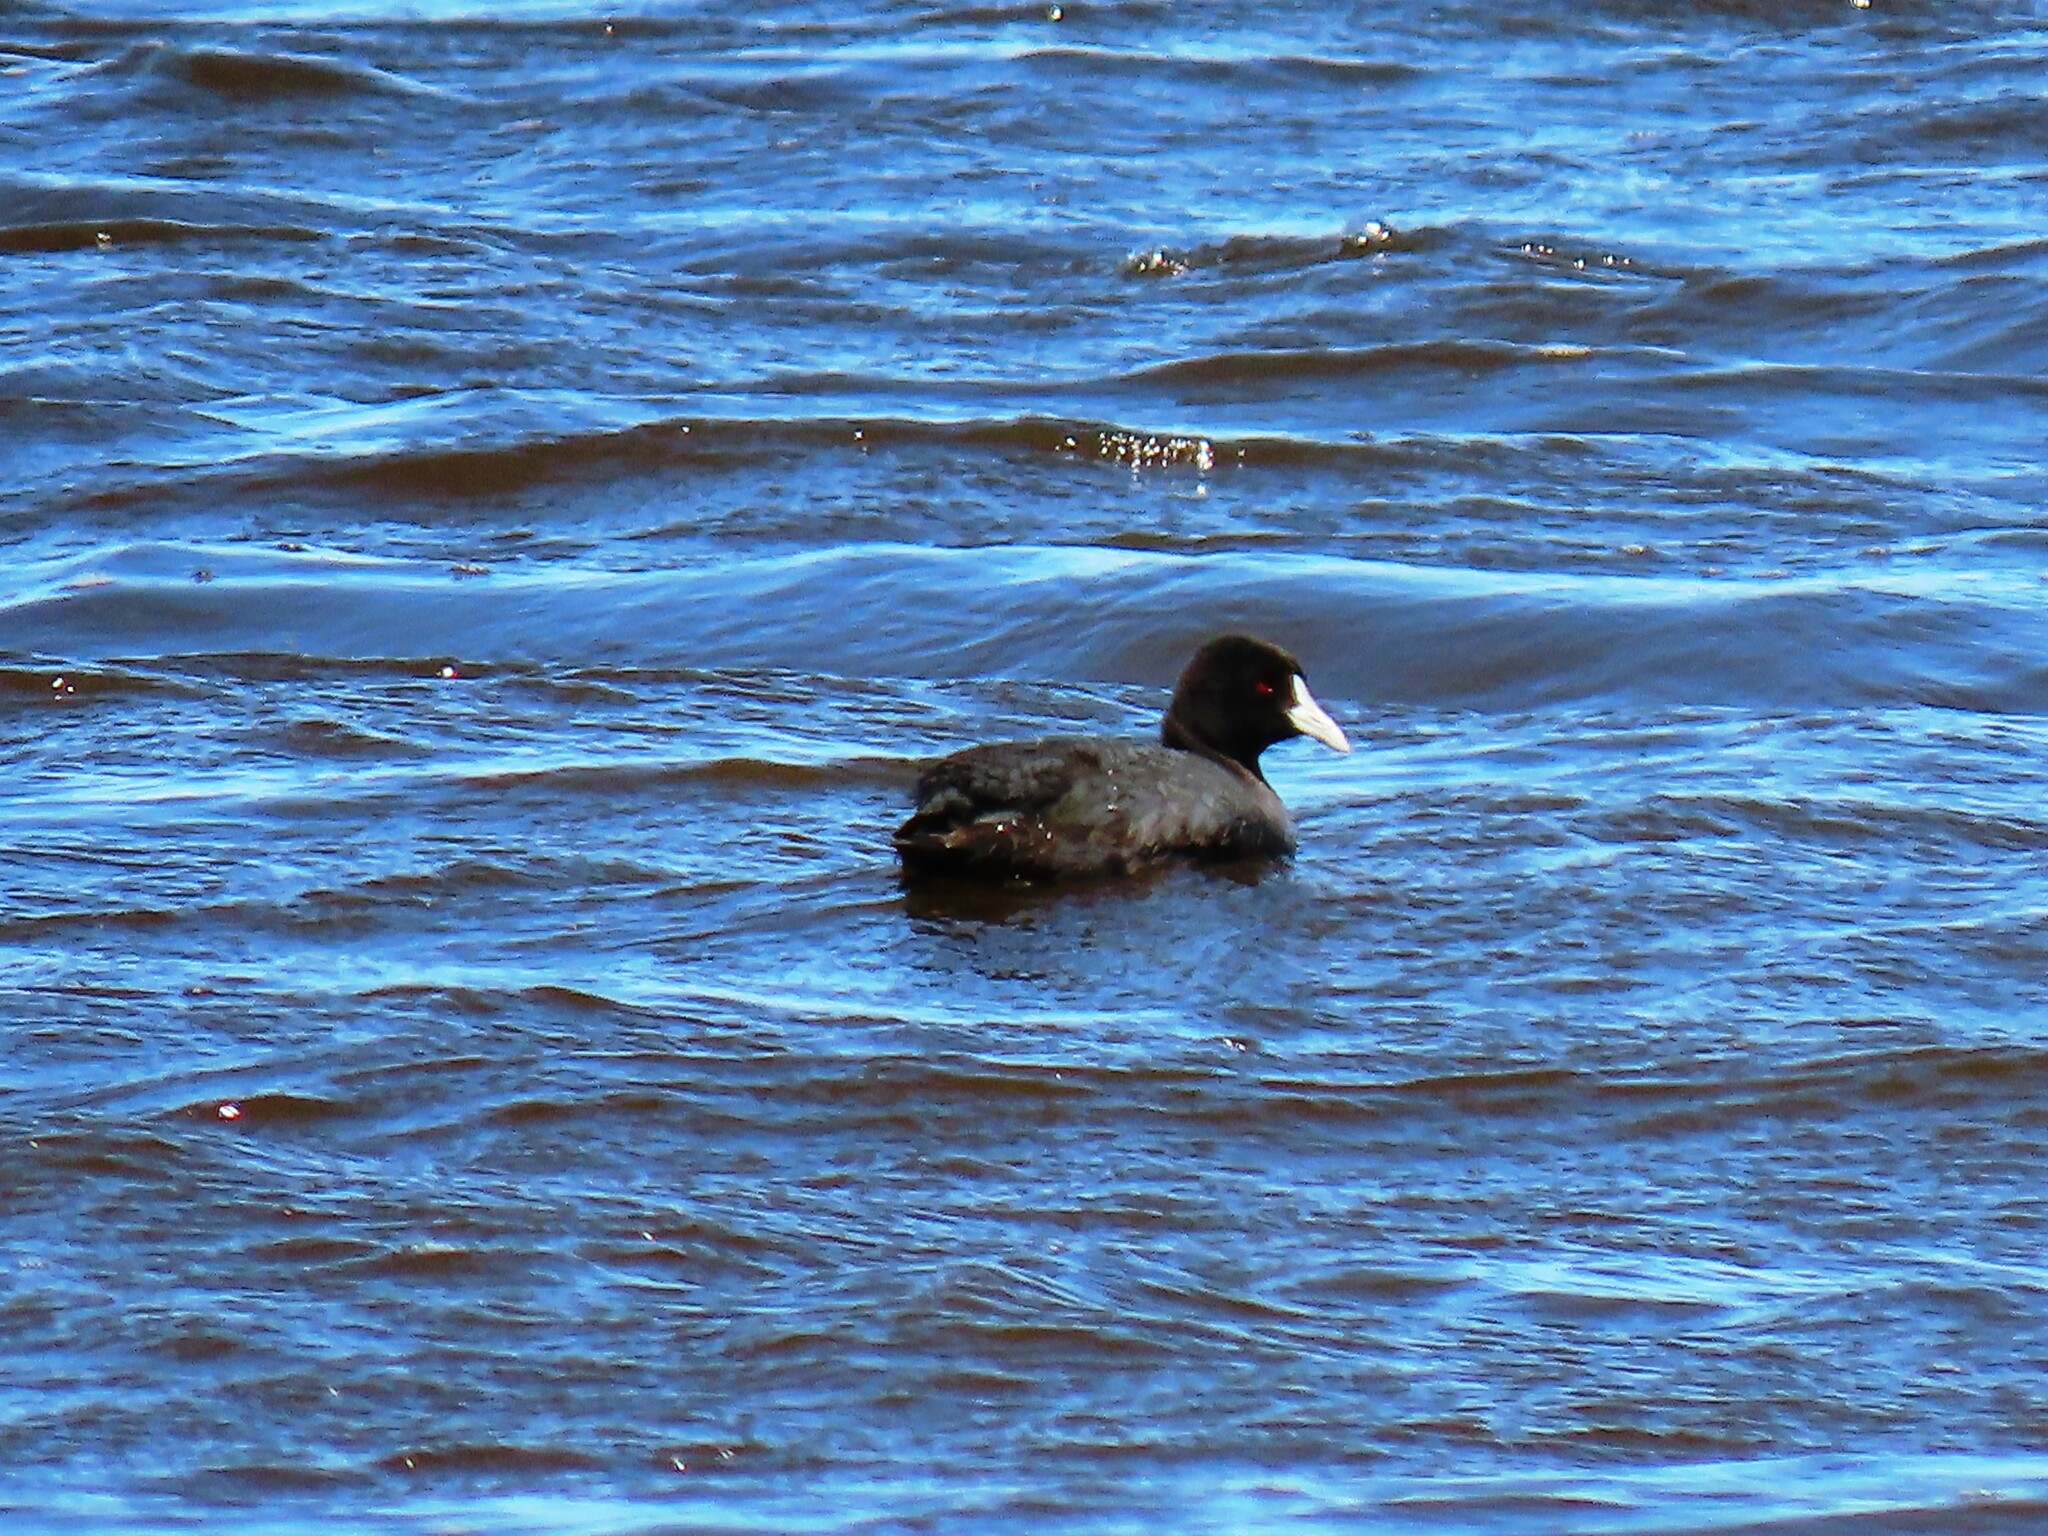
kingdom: Animalia
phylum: Chordata
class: Aves
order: Gruiformes
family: Rallidae
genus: Fulica
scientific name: Fulica atra
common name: Eurasian coot
